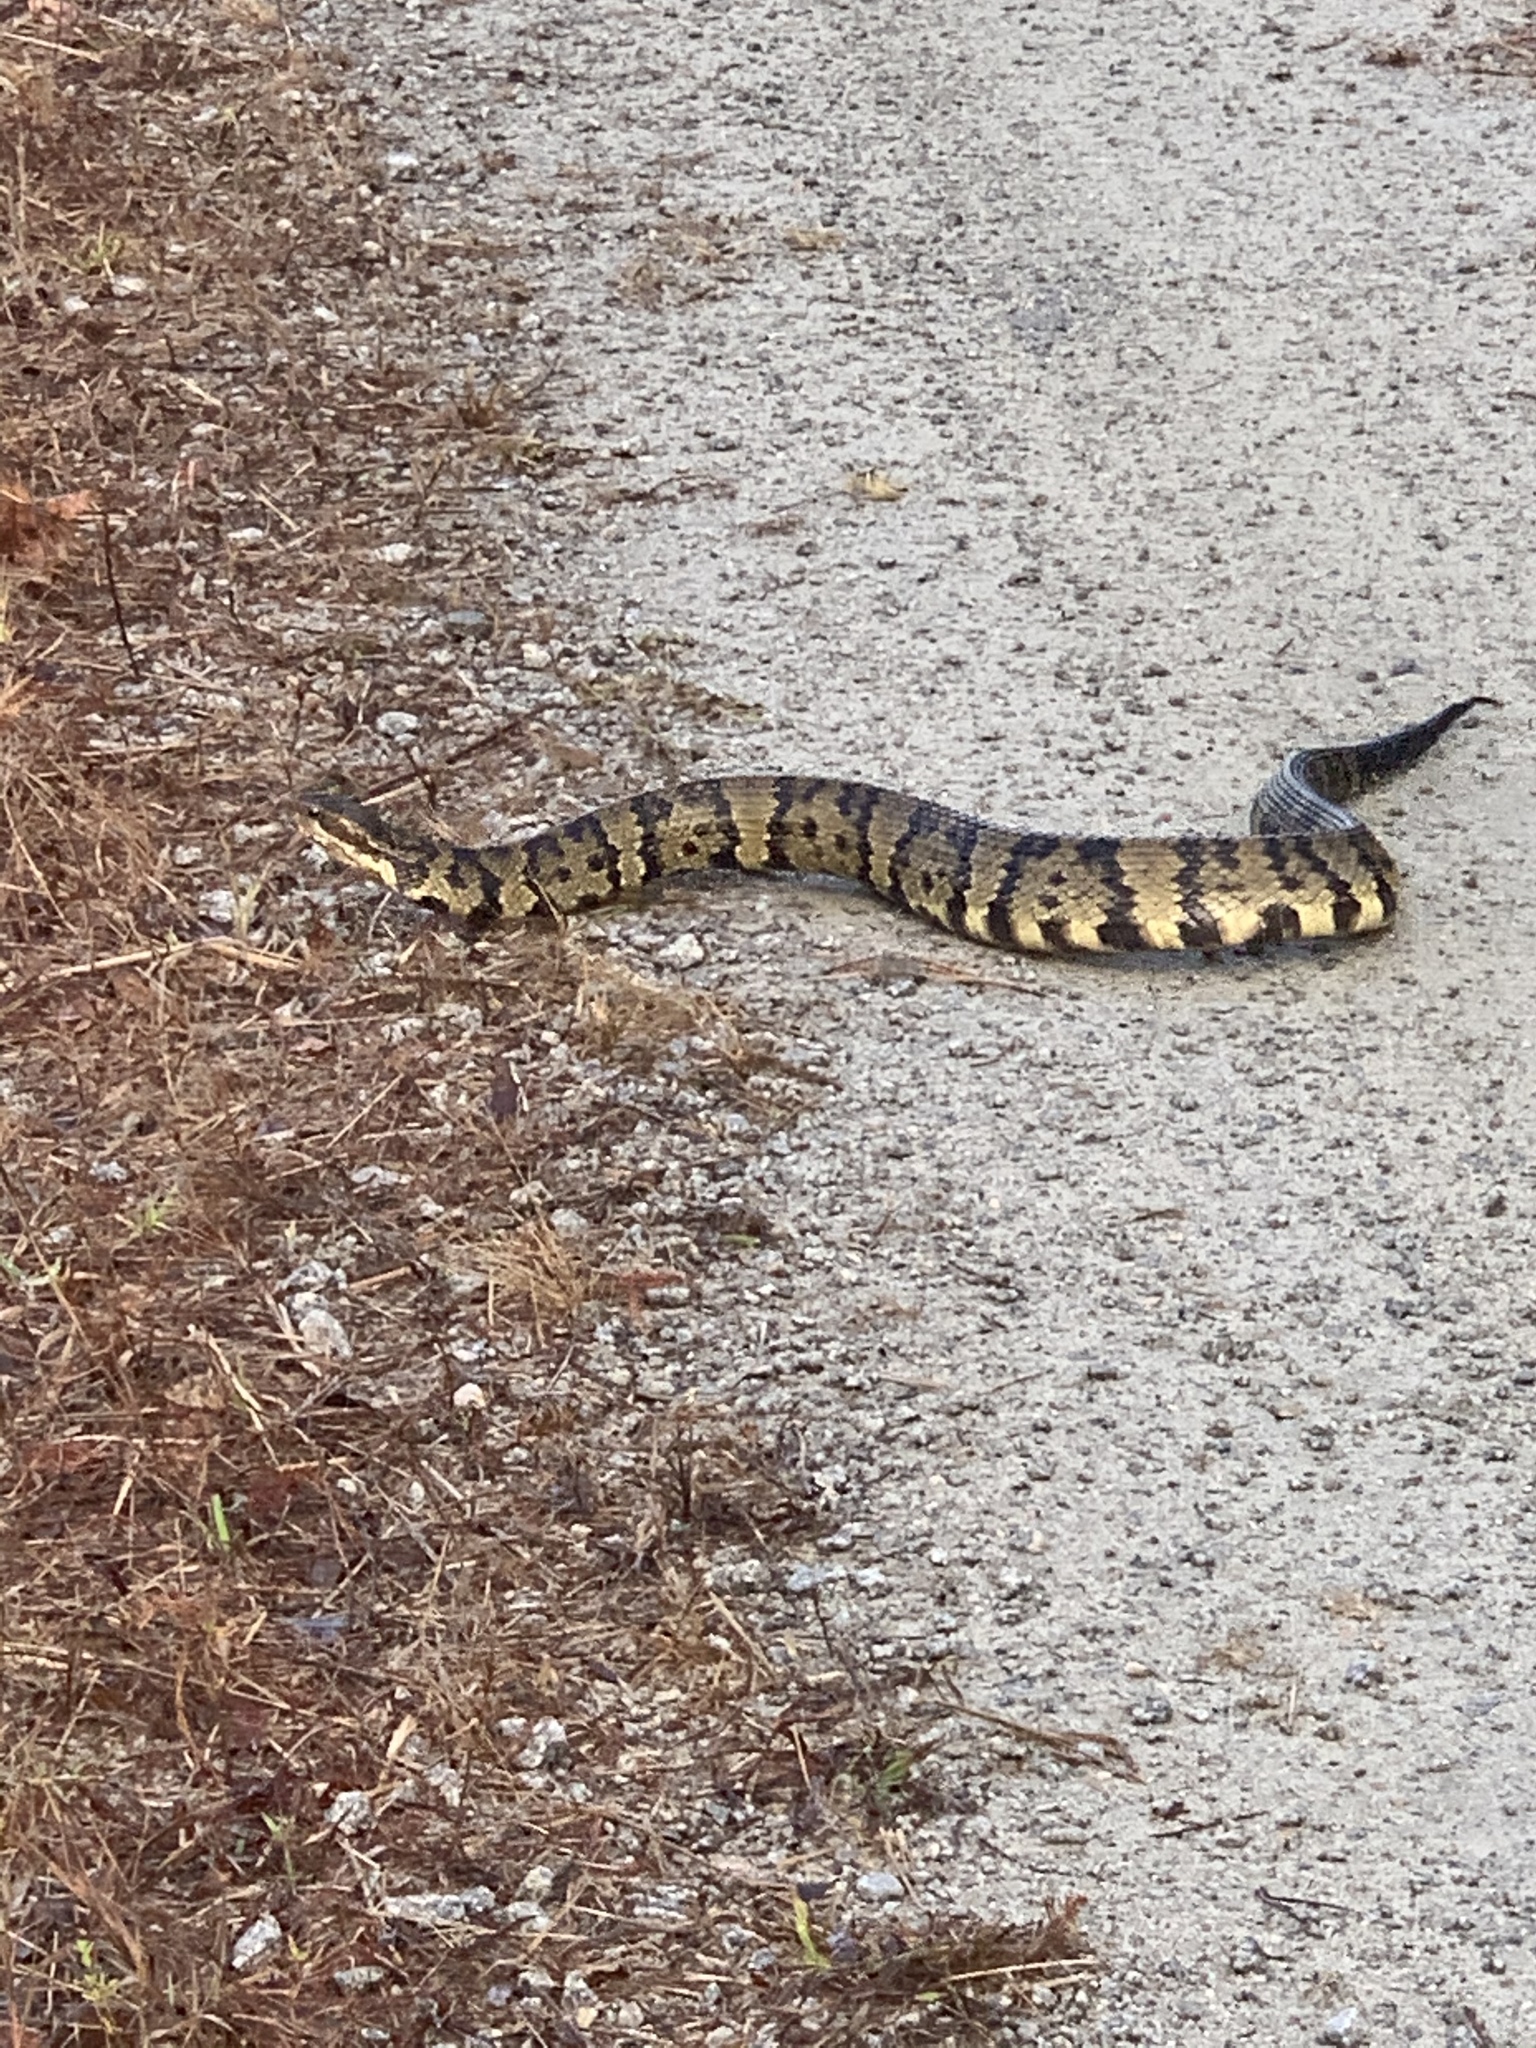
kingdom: Animalia
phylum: Chordata
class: Squamata
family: Viperidae
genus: Agkistrodon
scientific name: Agkistrodon piscivorus
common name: Cottonmouth
